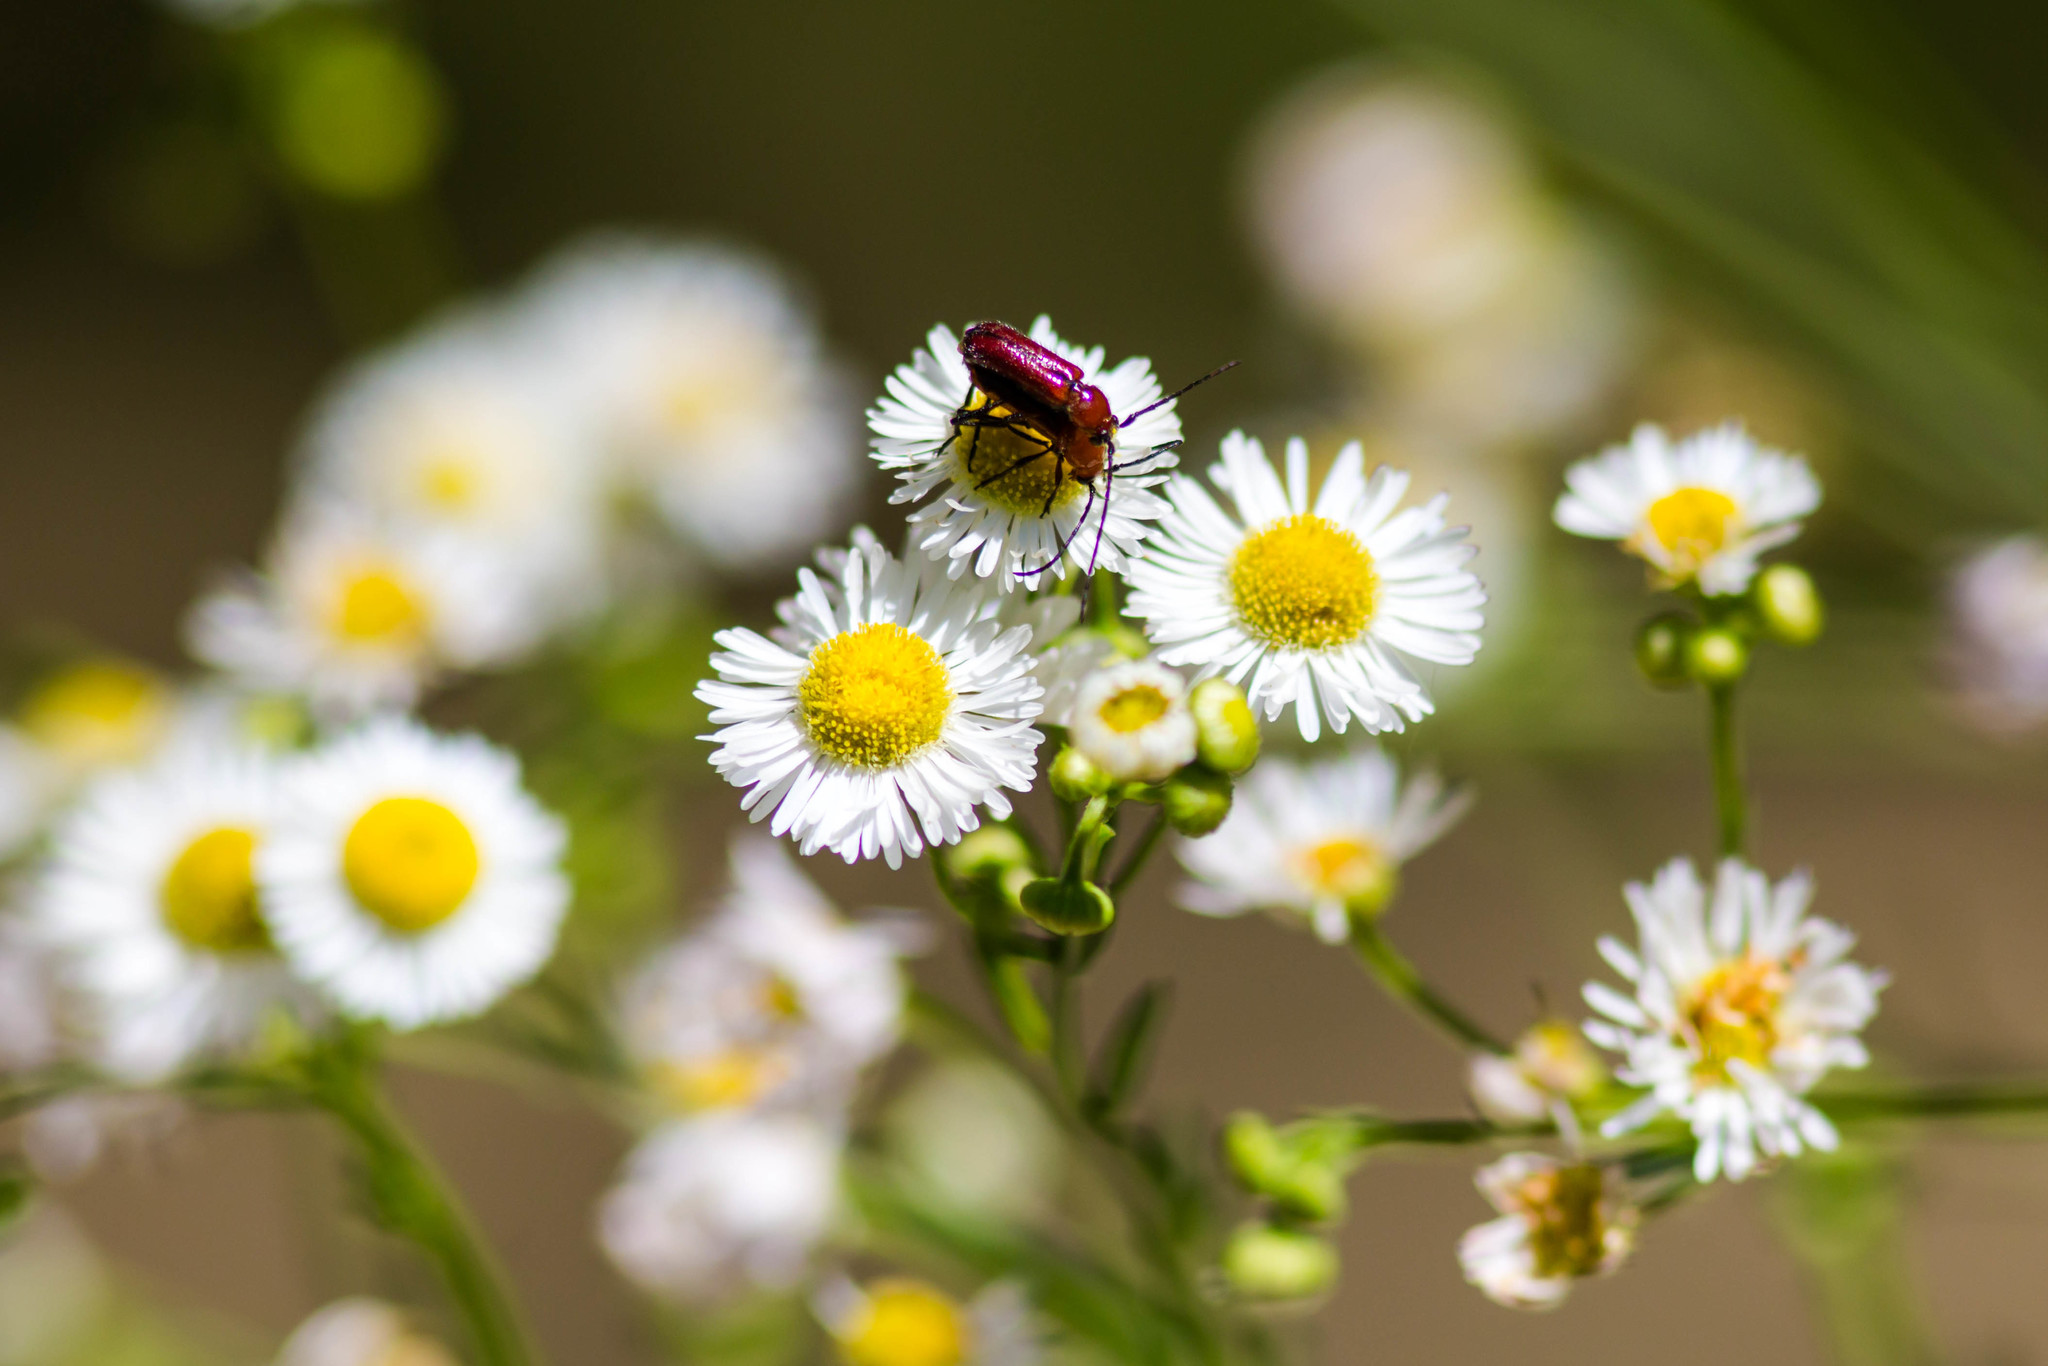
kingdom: Animalia
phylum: Arthropoda
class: Insecta
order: Coleoptera
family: Cerambycidae
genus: Batyle
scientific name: Batyle suturalis
